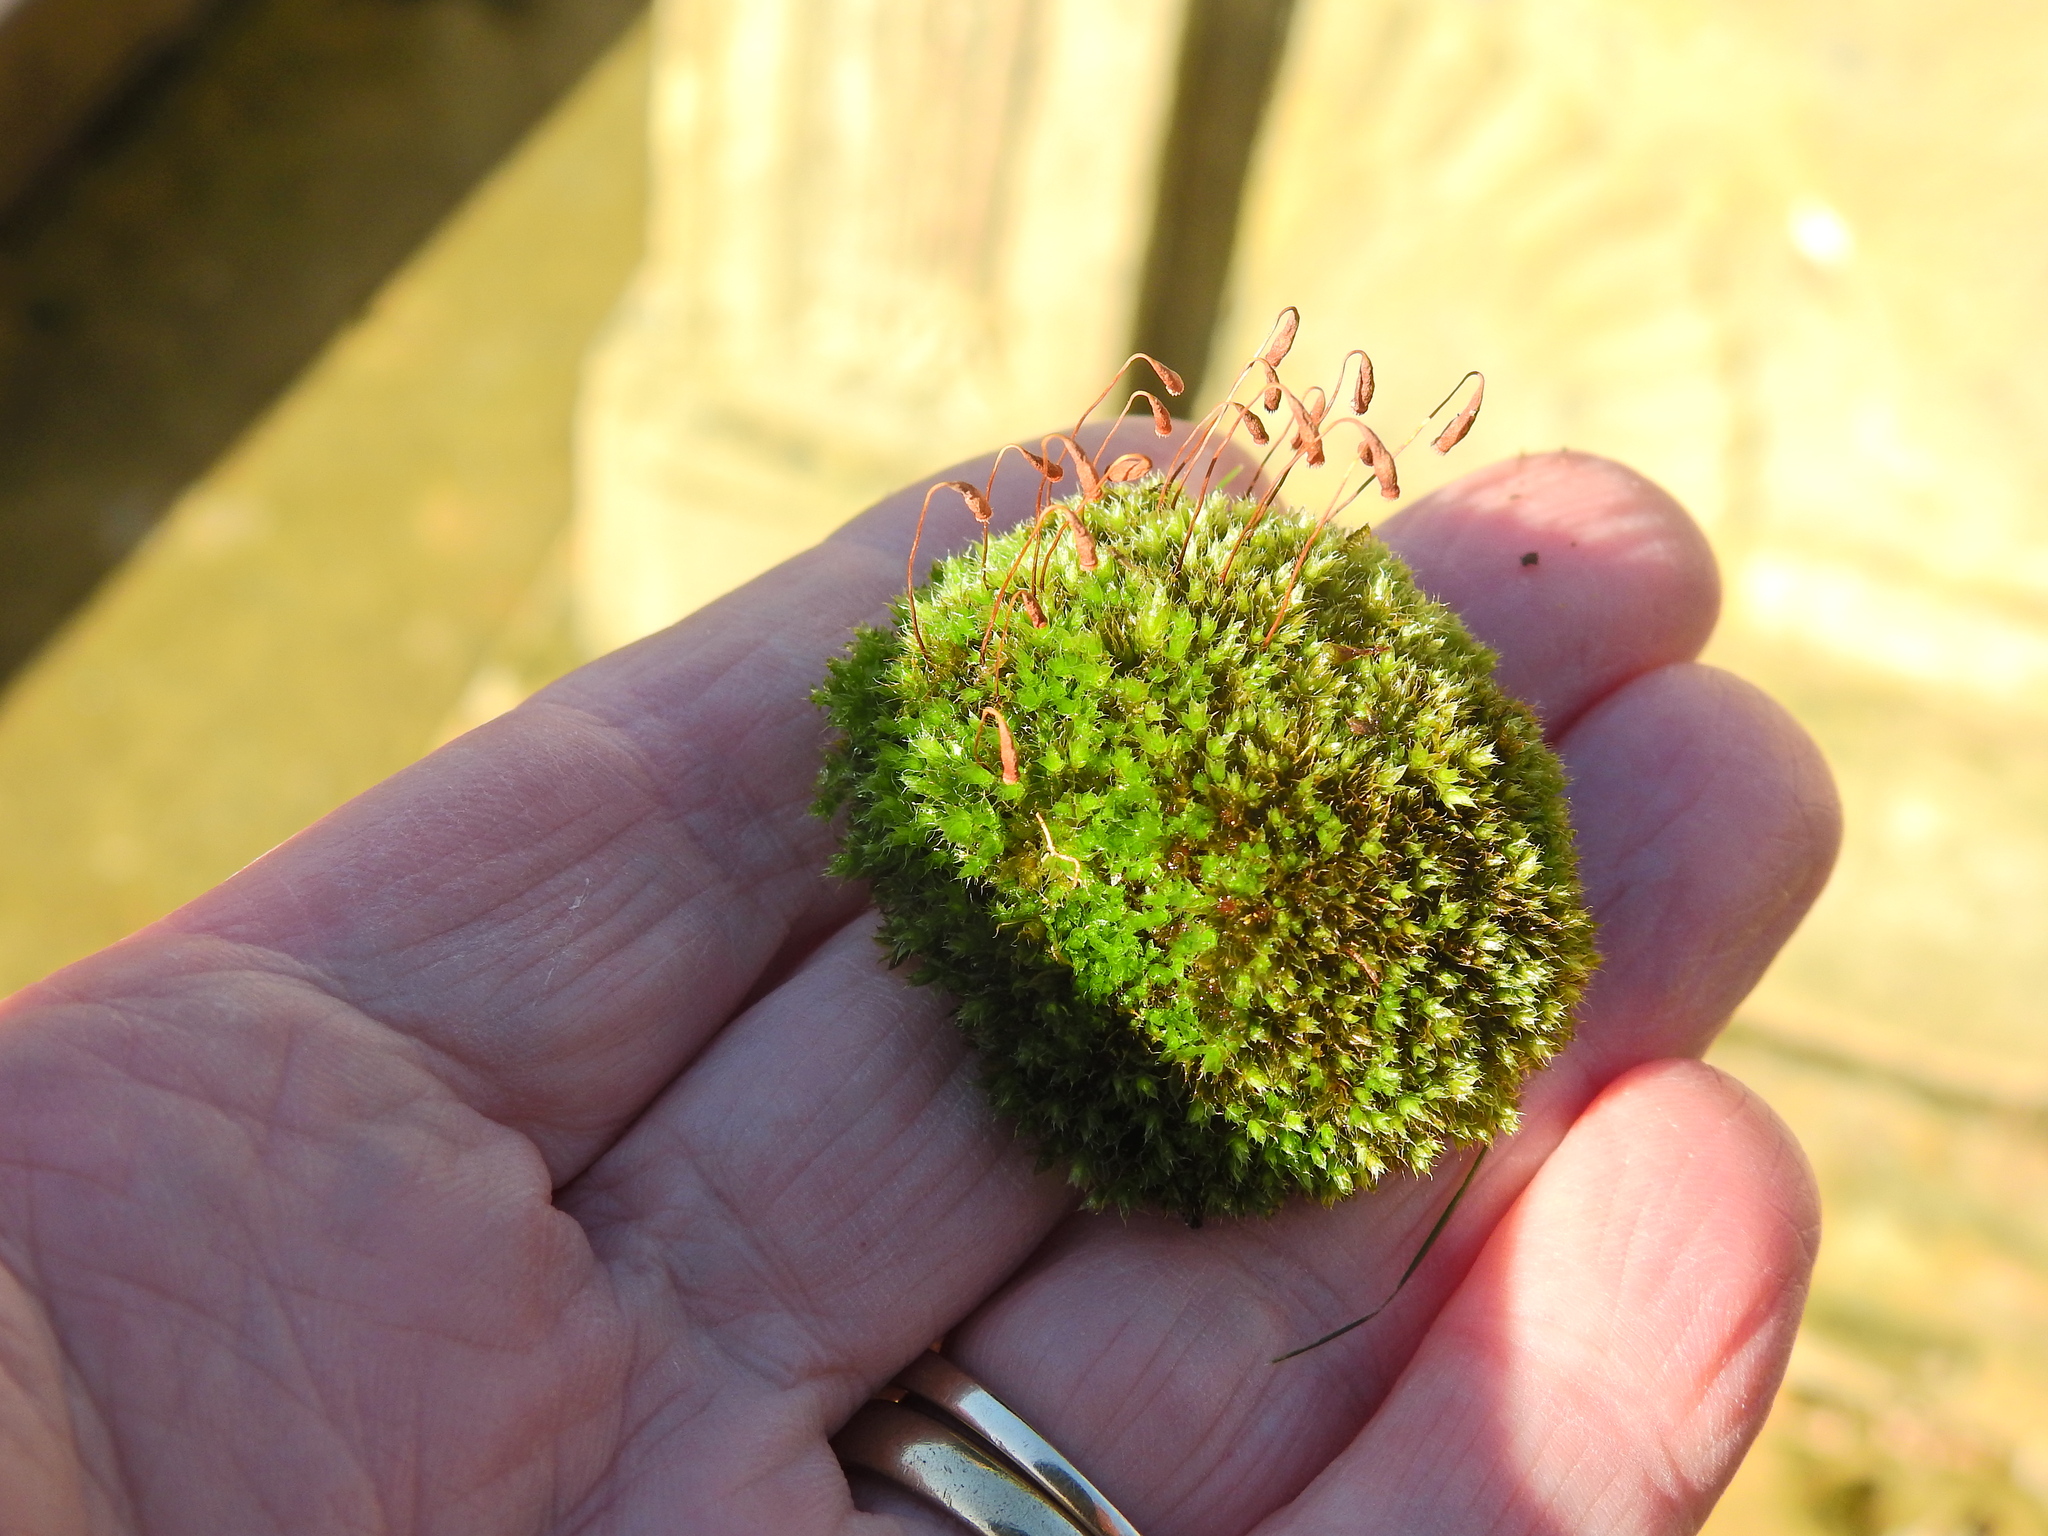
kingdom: Plantae
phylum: Bryophyta
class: Bryopsida
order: Bryales
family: Bryaceae
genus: Rosulabryum
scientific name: Rosulabryum capillare
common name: Capillary thread-moss
